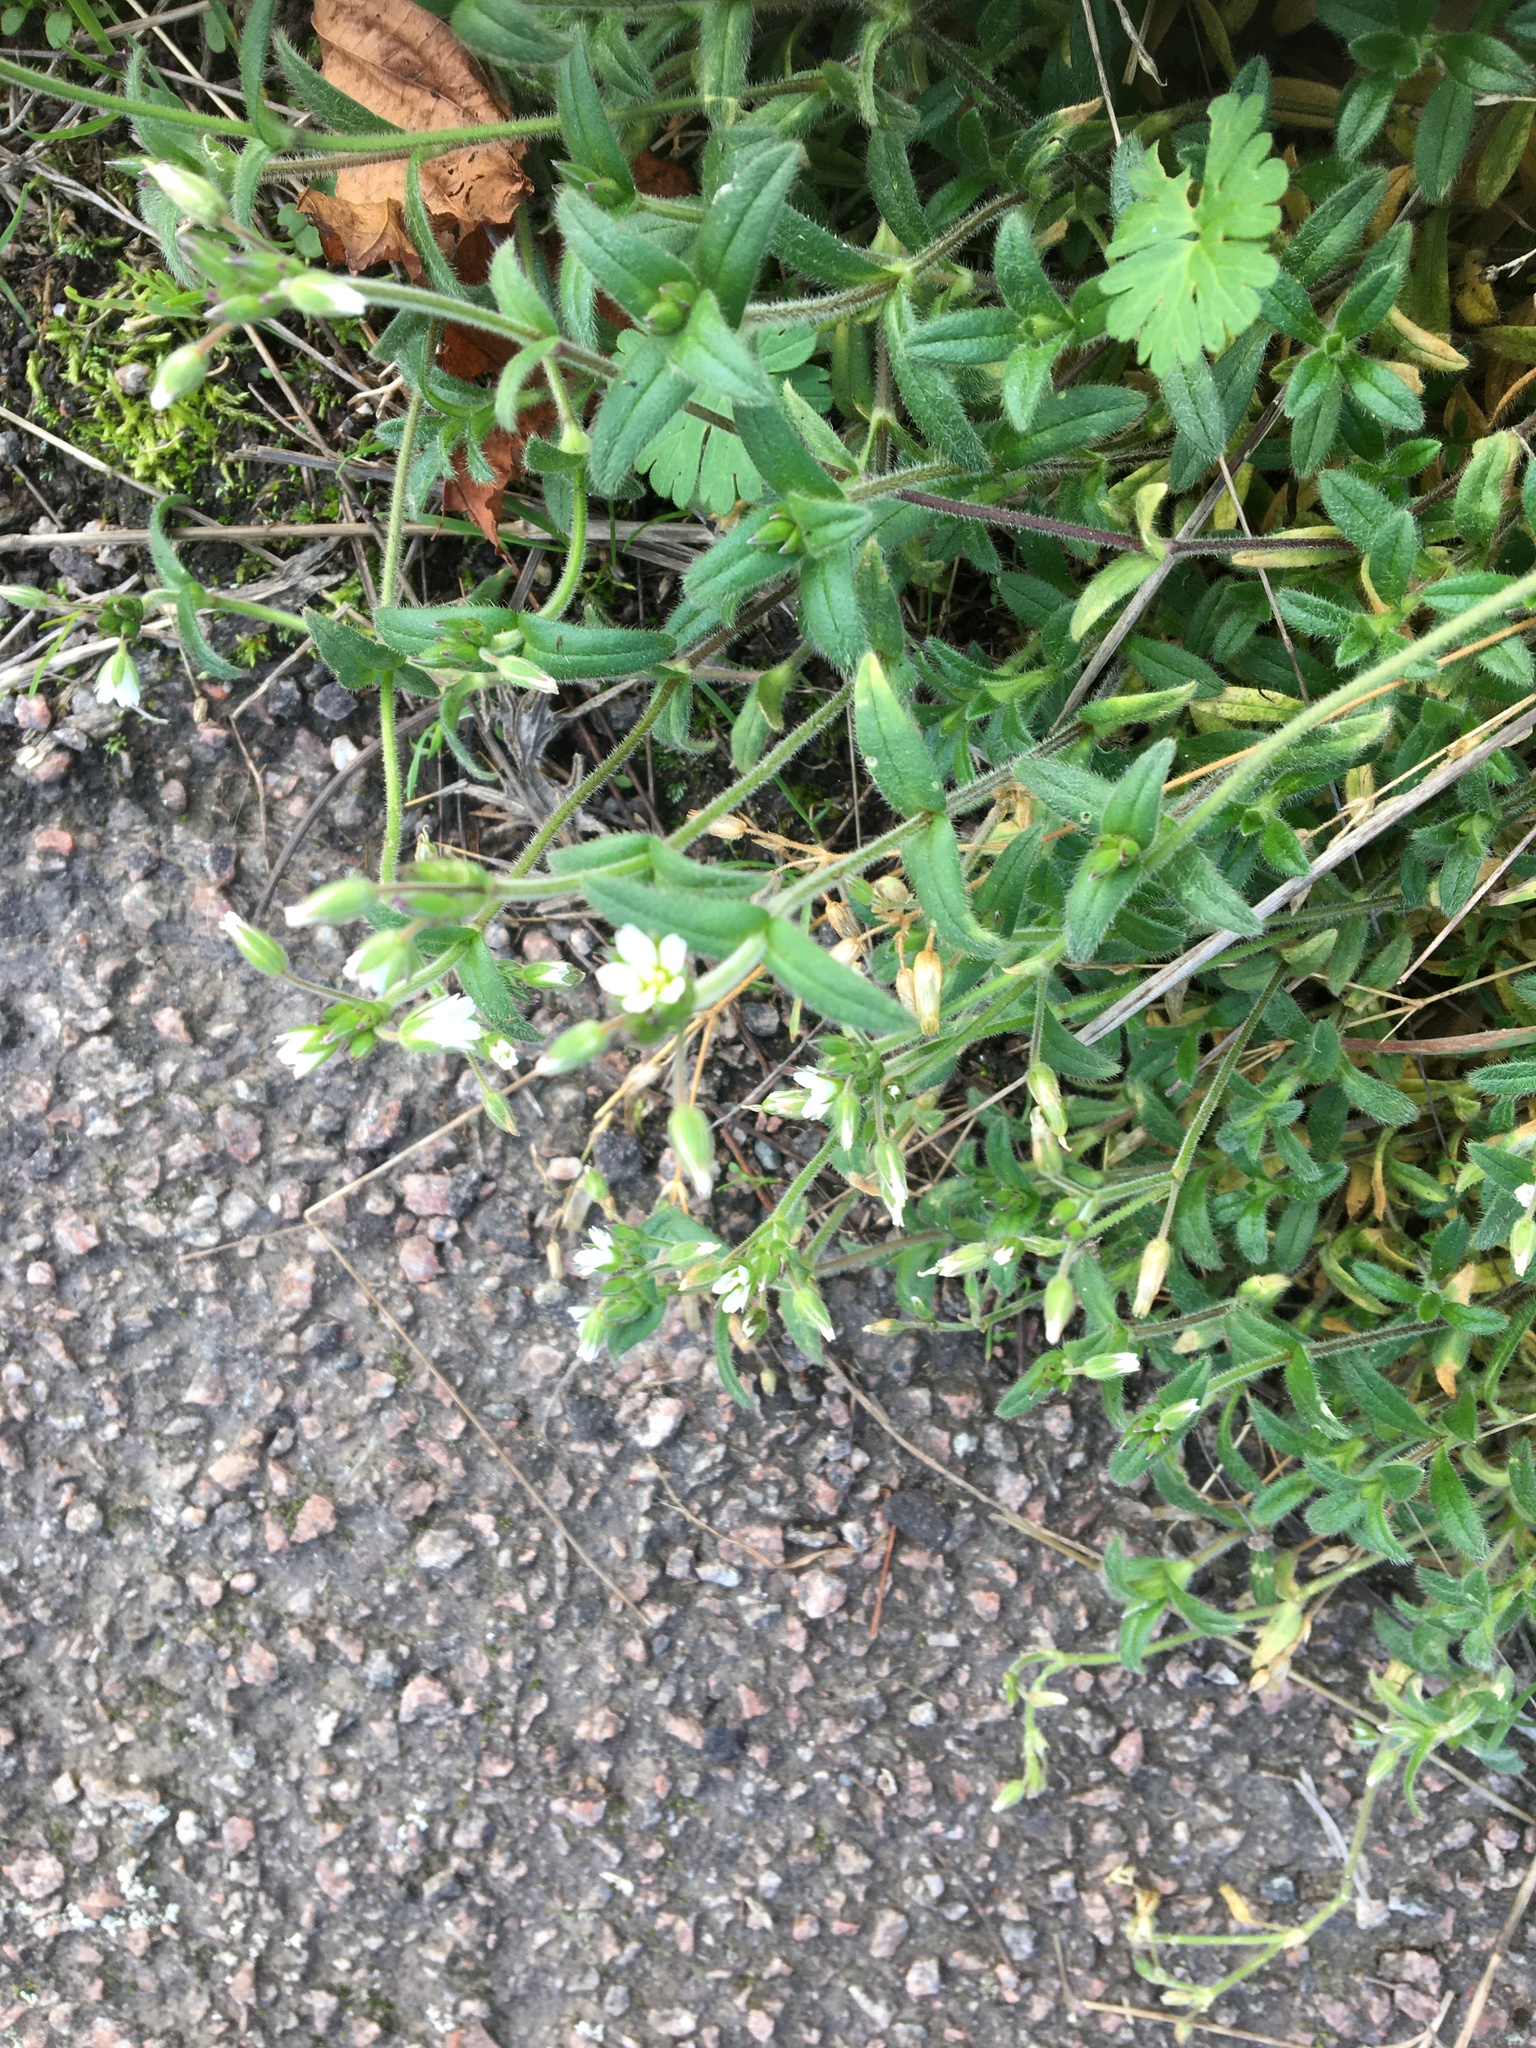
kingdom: Plantae
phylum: Tracheophyta
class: Magnoliopsida
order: Caryophyllales
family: Caryophyllaceae
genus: Cerastium
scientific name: Cerastium fontanum
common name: Common mouse-ear
